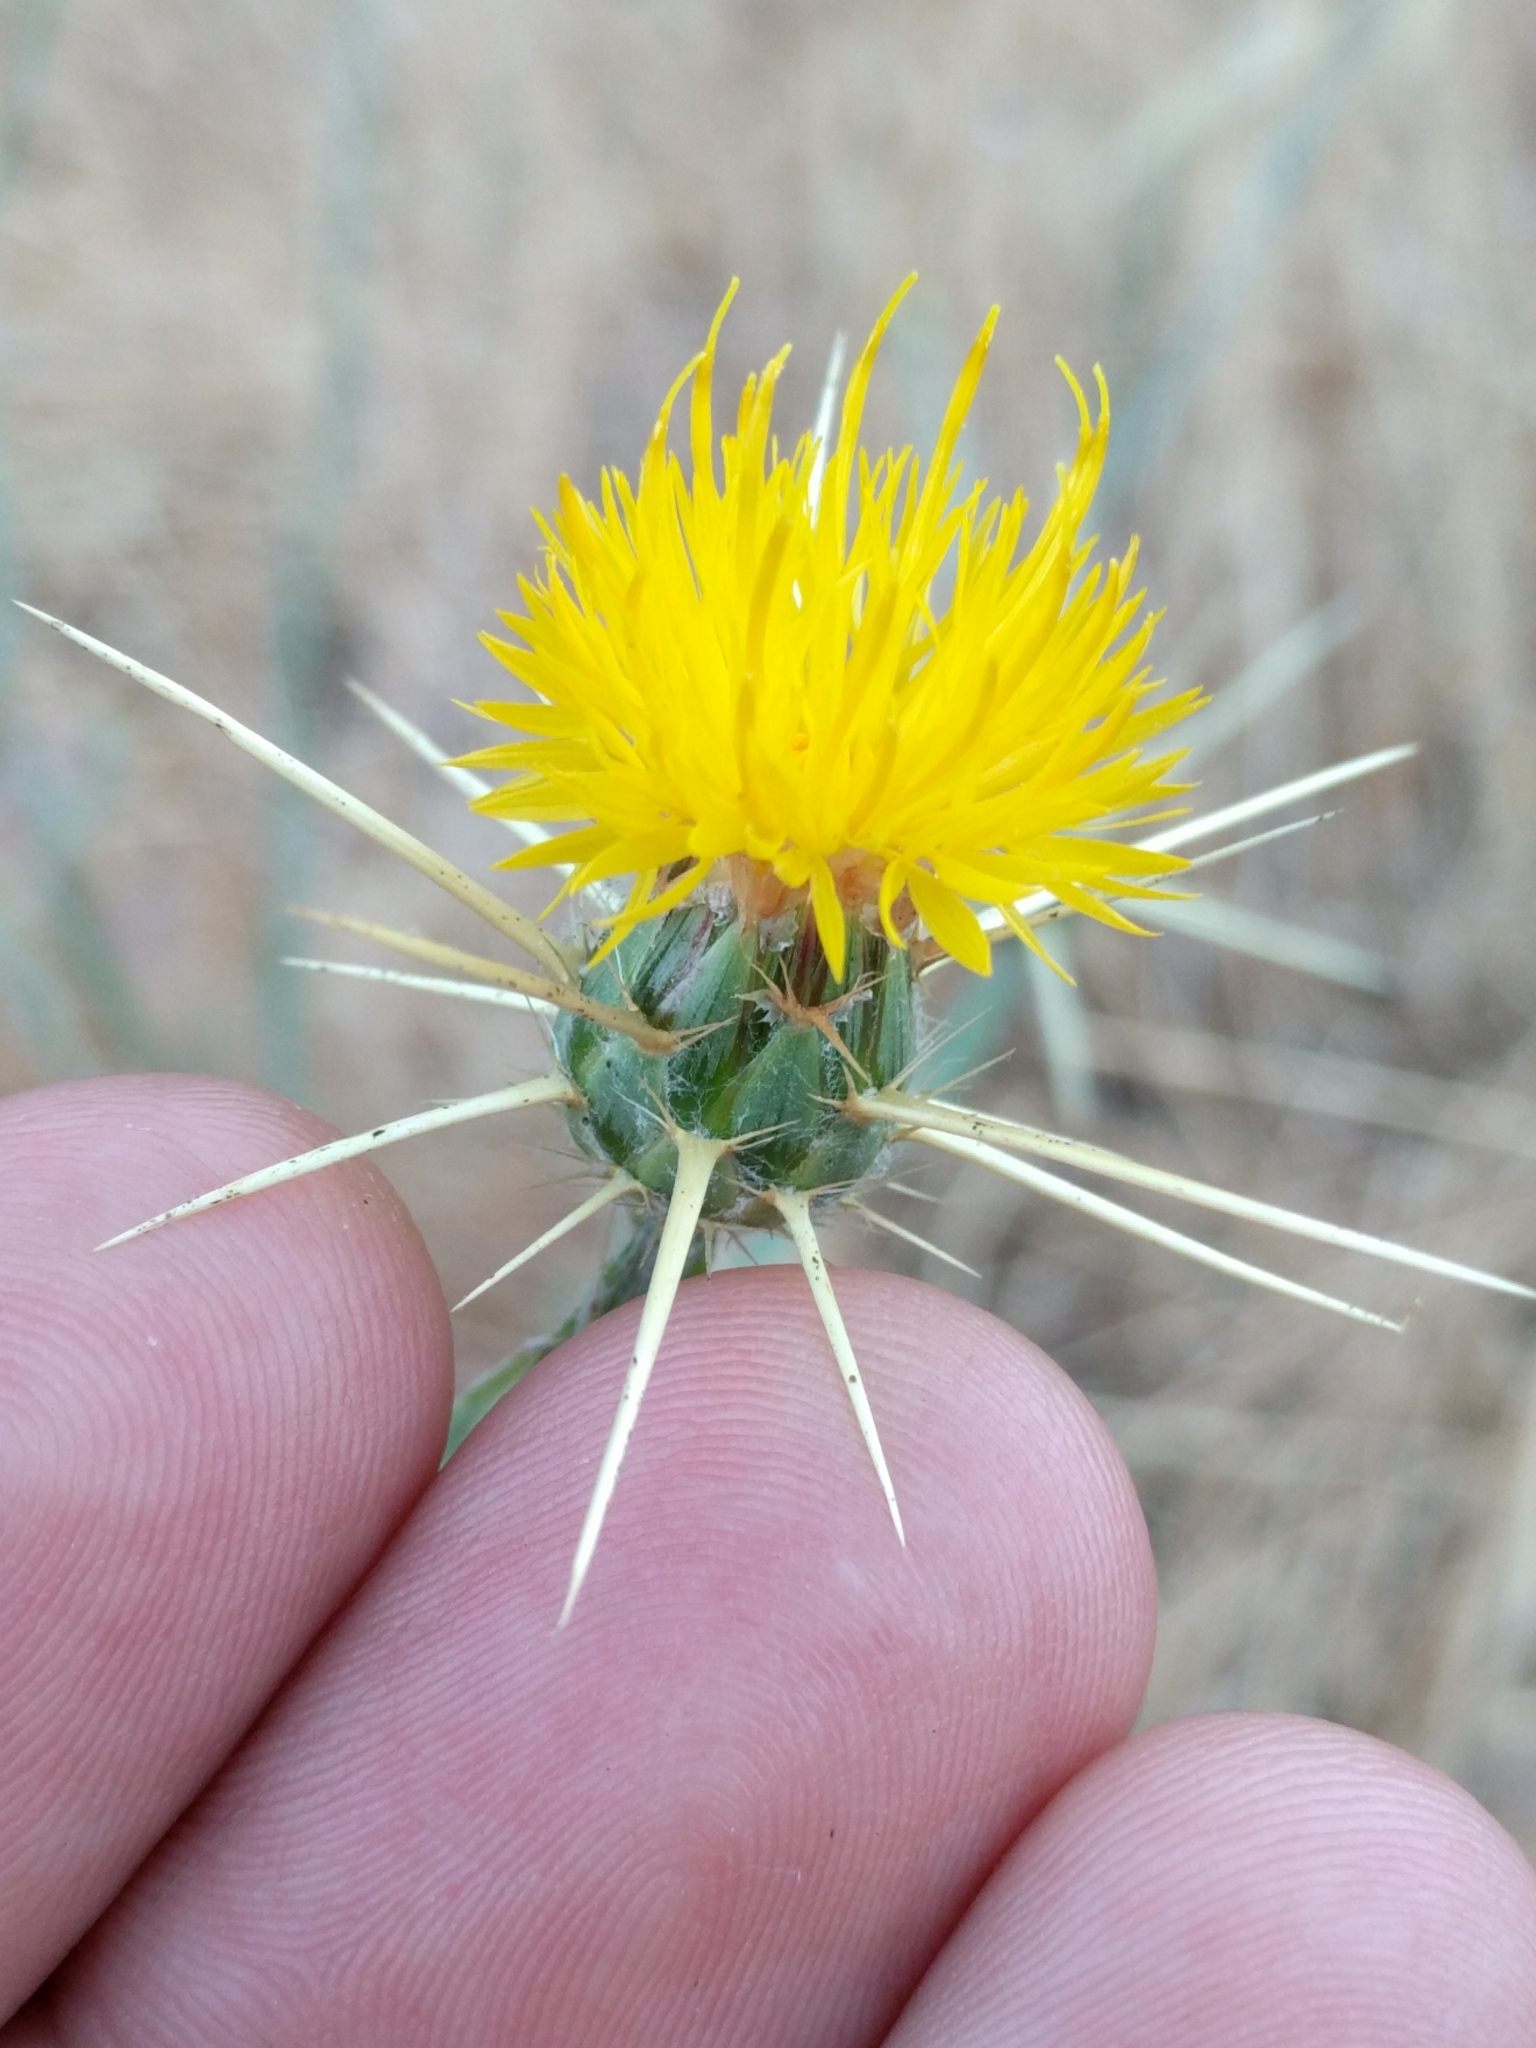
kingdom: Plantae
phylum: Tracheophyta
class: Magnoliopsida
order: Asterales
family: Asteraceae
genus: Centaurea
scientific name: Centaurea solstitialis
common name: Yellow star-thistle
